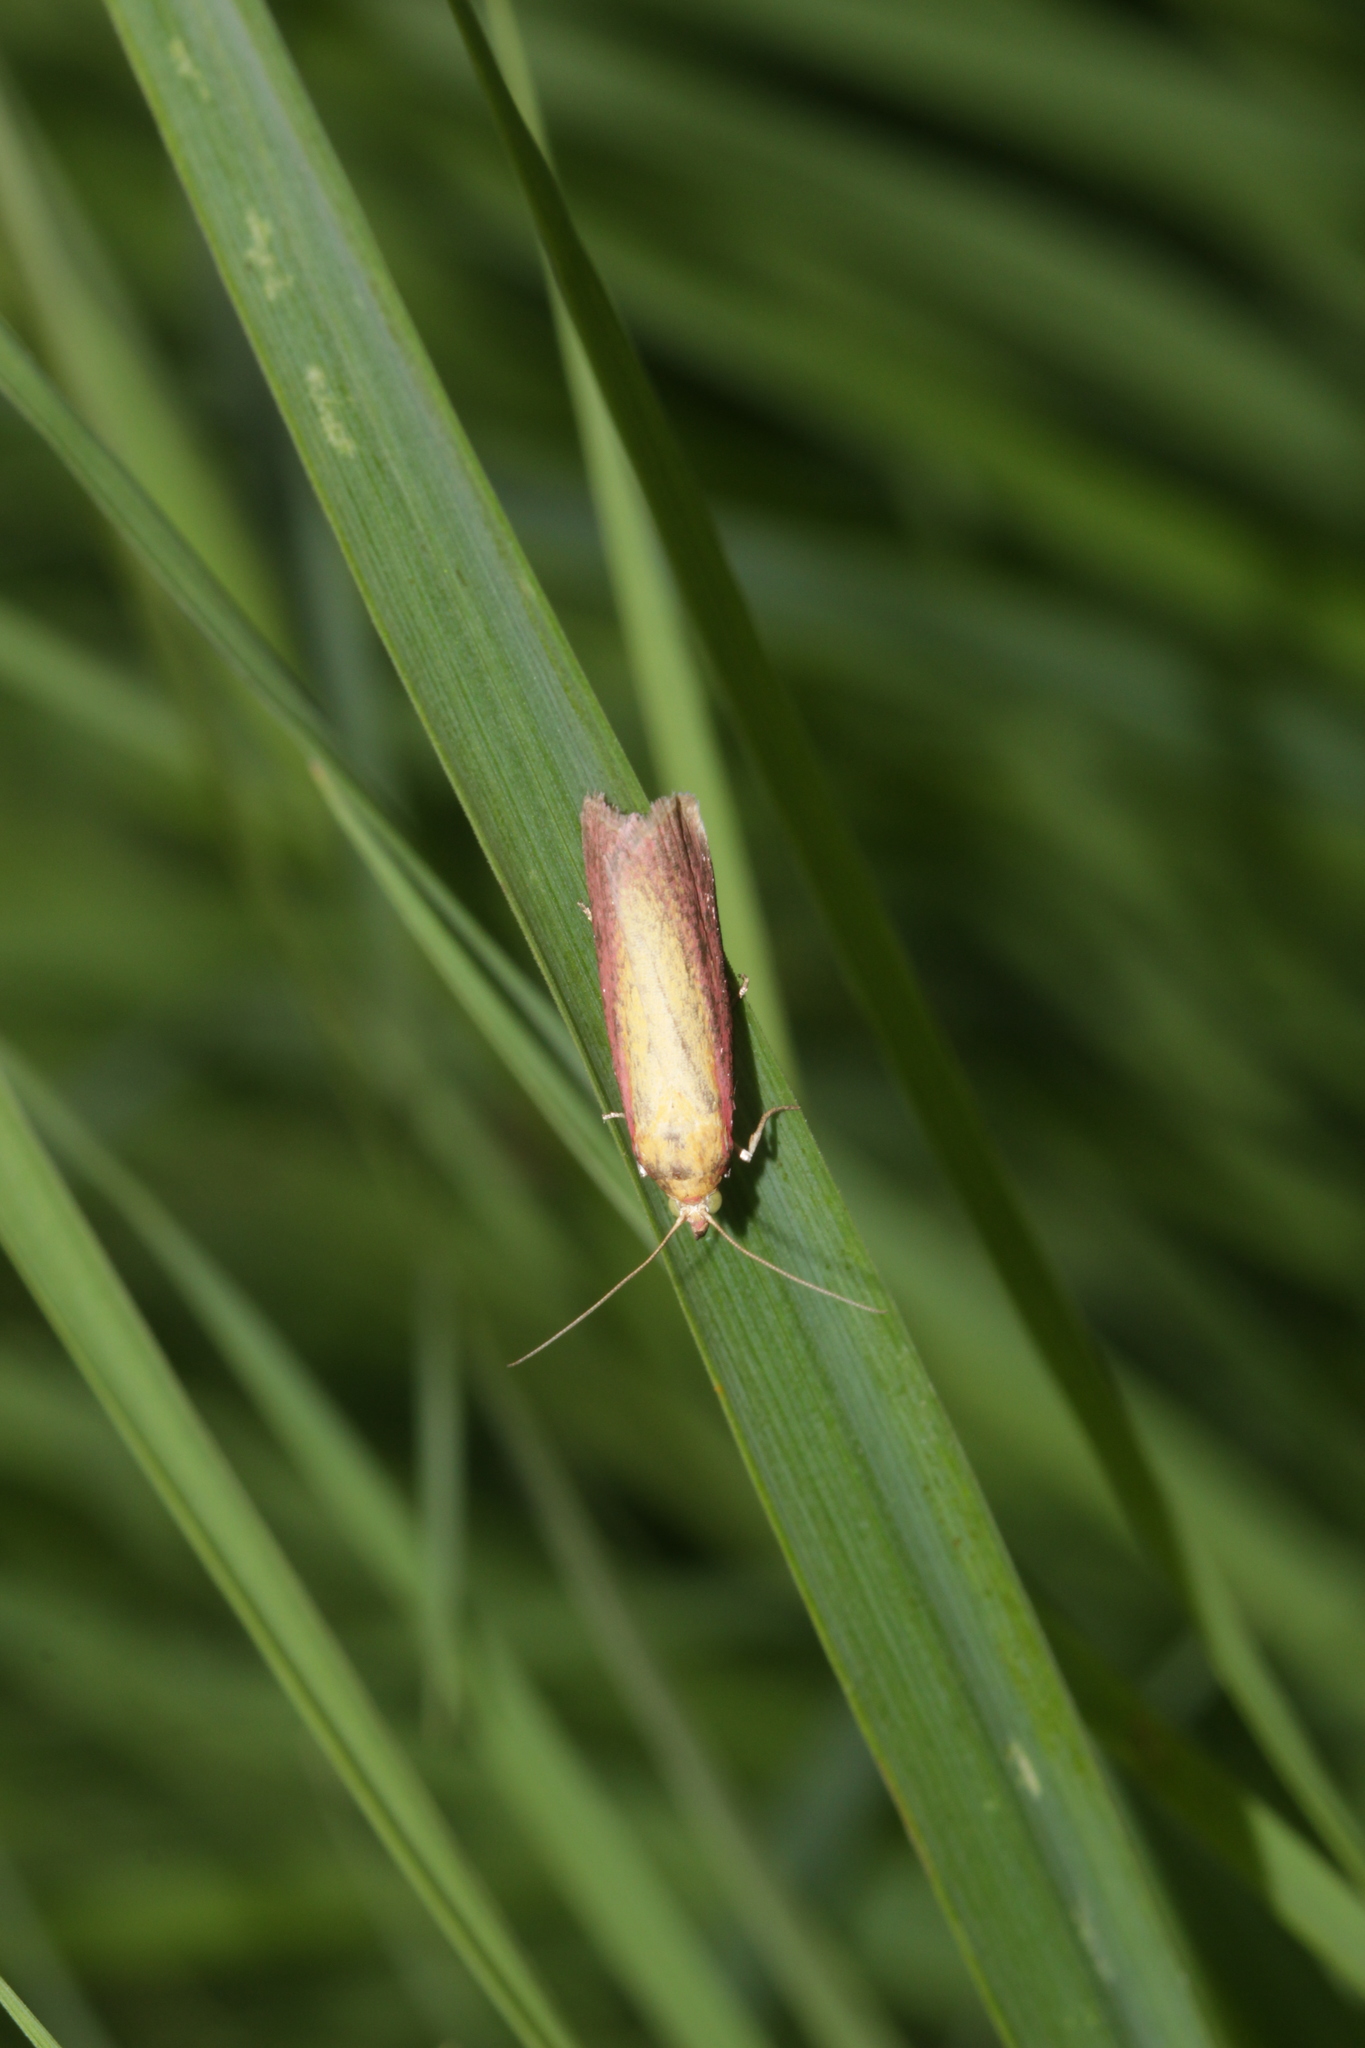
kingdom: Animalia
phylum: Arthropoda
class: Insecta
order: Lepidoptera
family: Pyralidae
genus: Oncocera
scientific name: Oncocera semirubella
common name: Rosy-striped knot-horn
